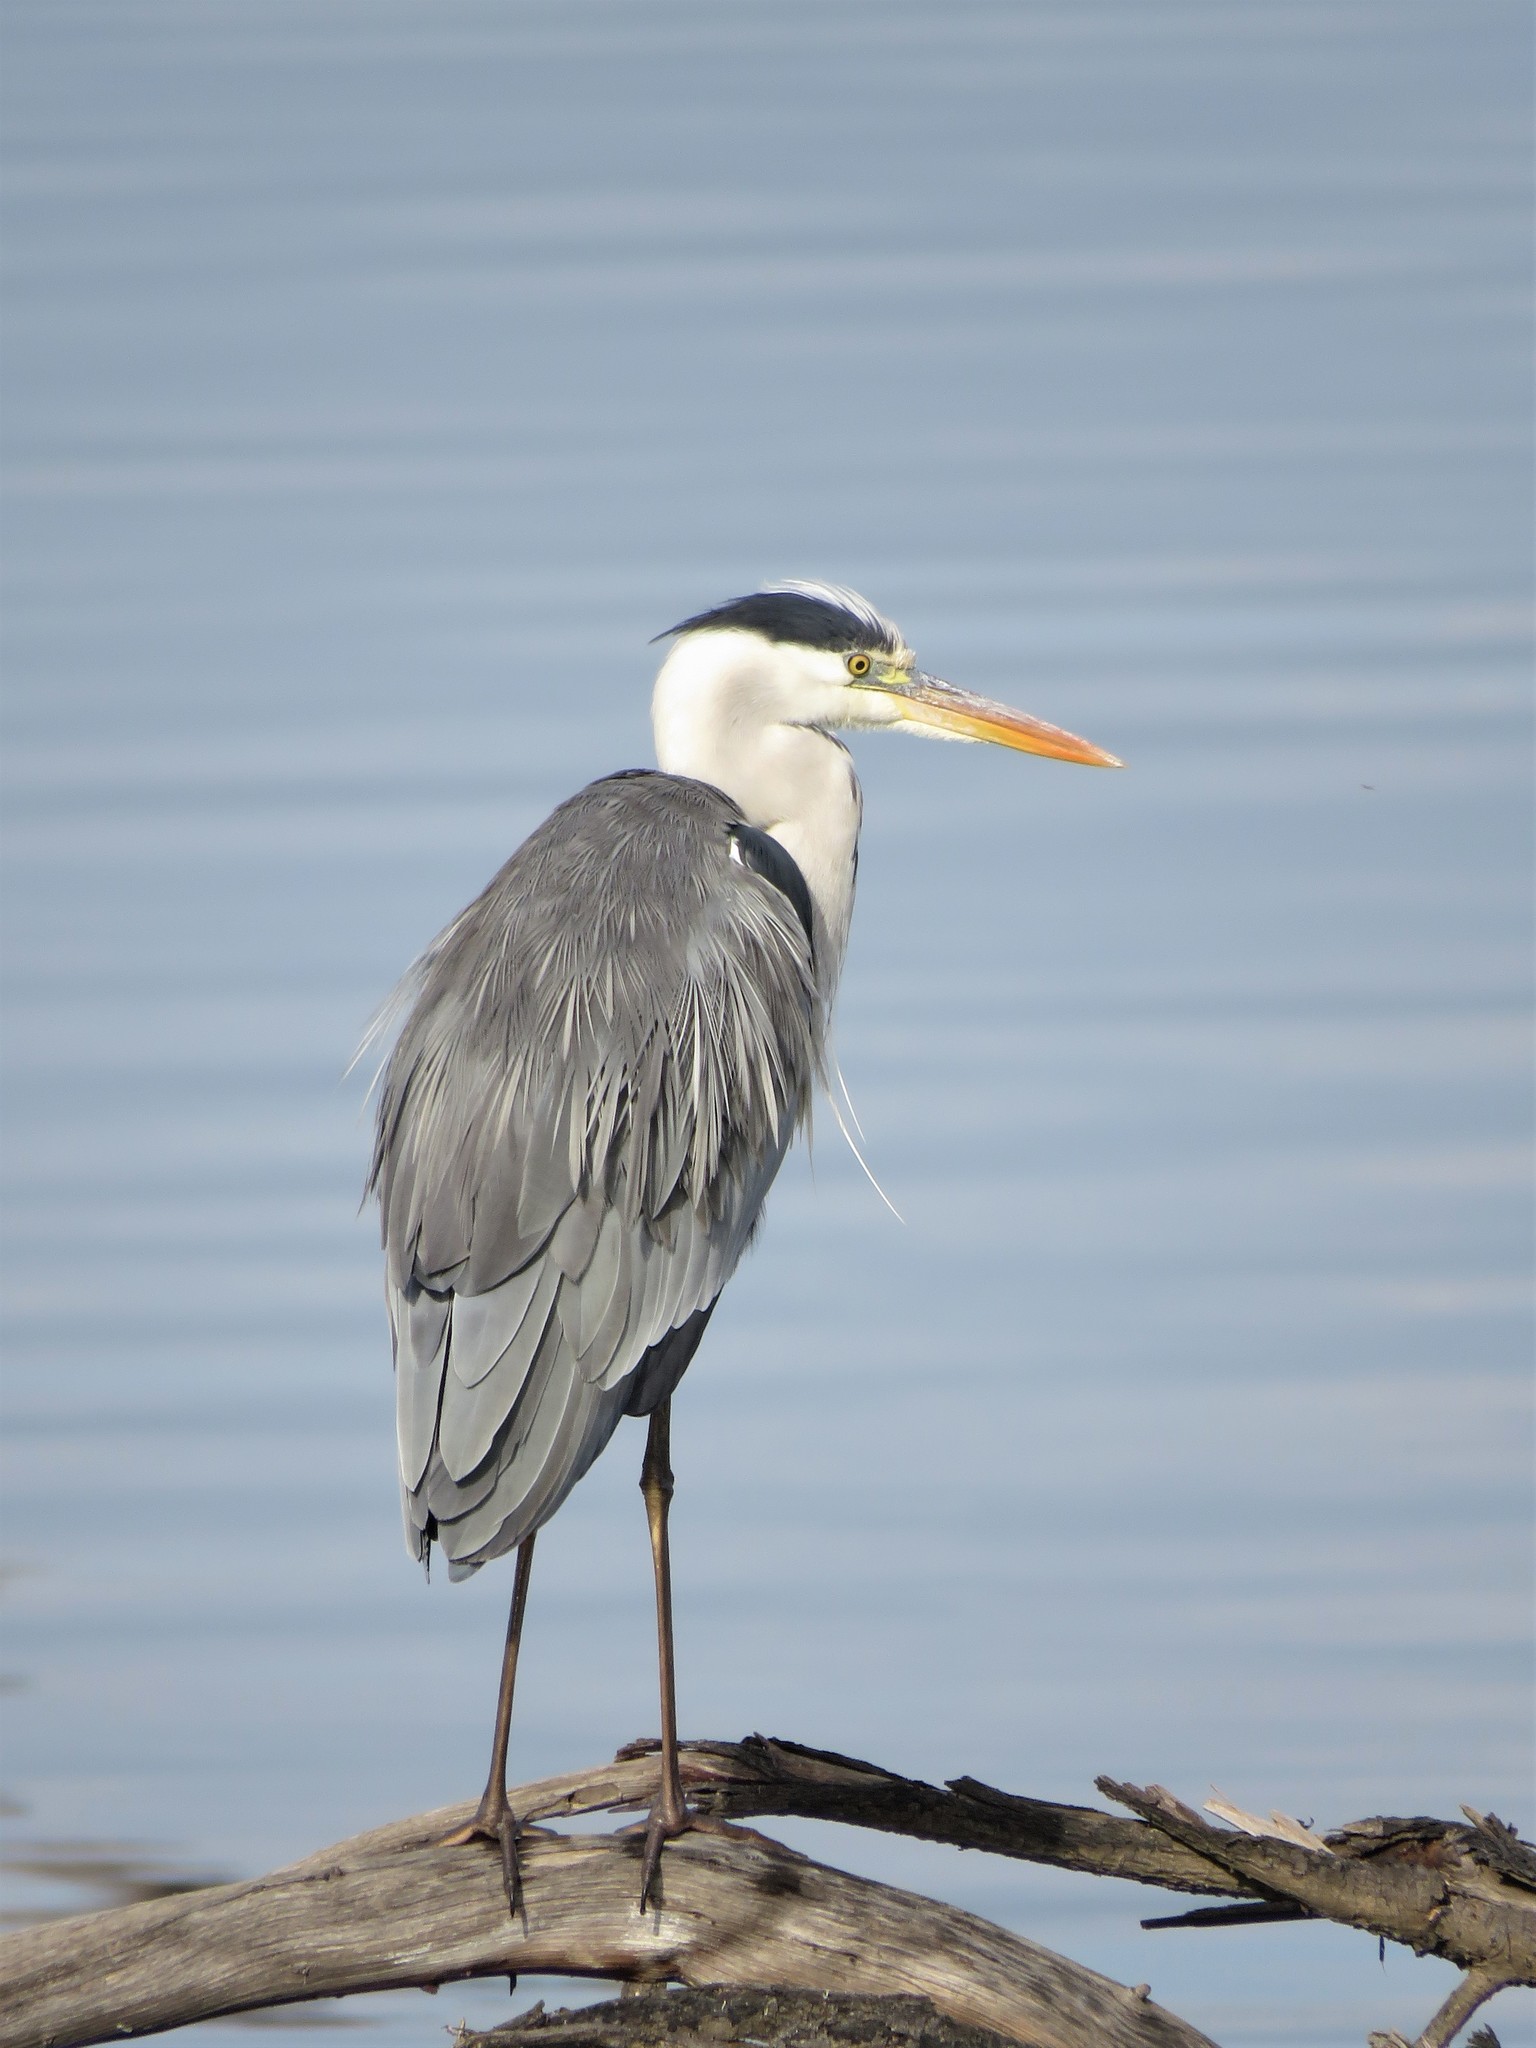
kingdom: Animalia
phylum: Chordata
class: Aves
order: Pelecaniformes
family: Ardeidae
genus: Ardea
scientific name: Ardea cinerea
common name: Grey heron
